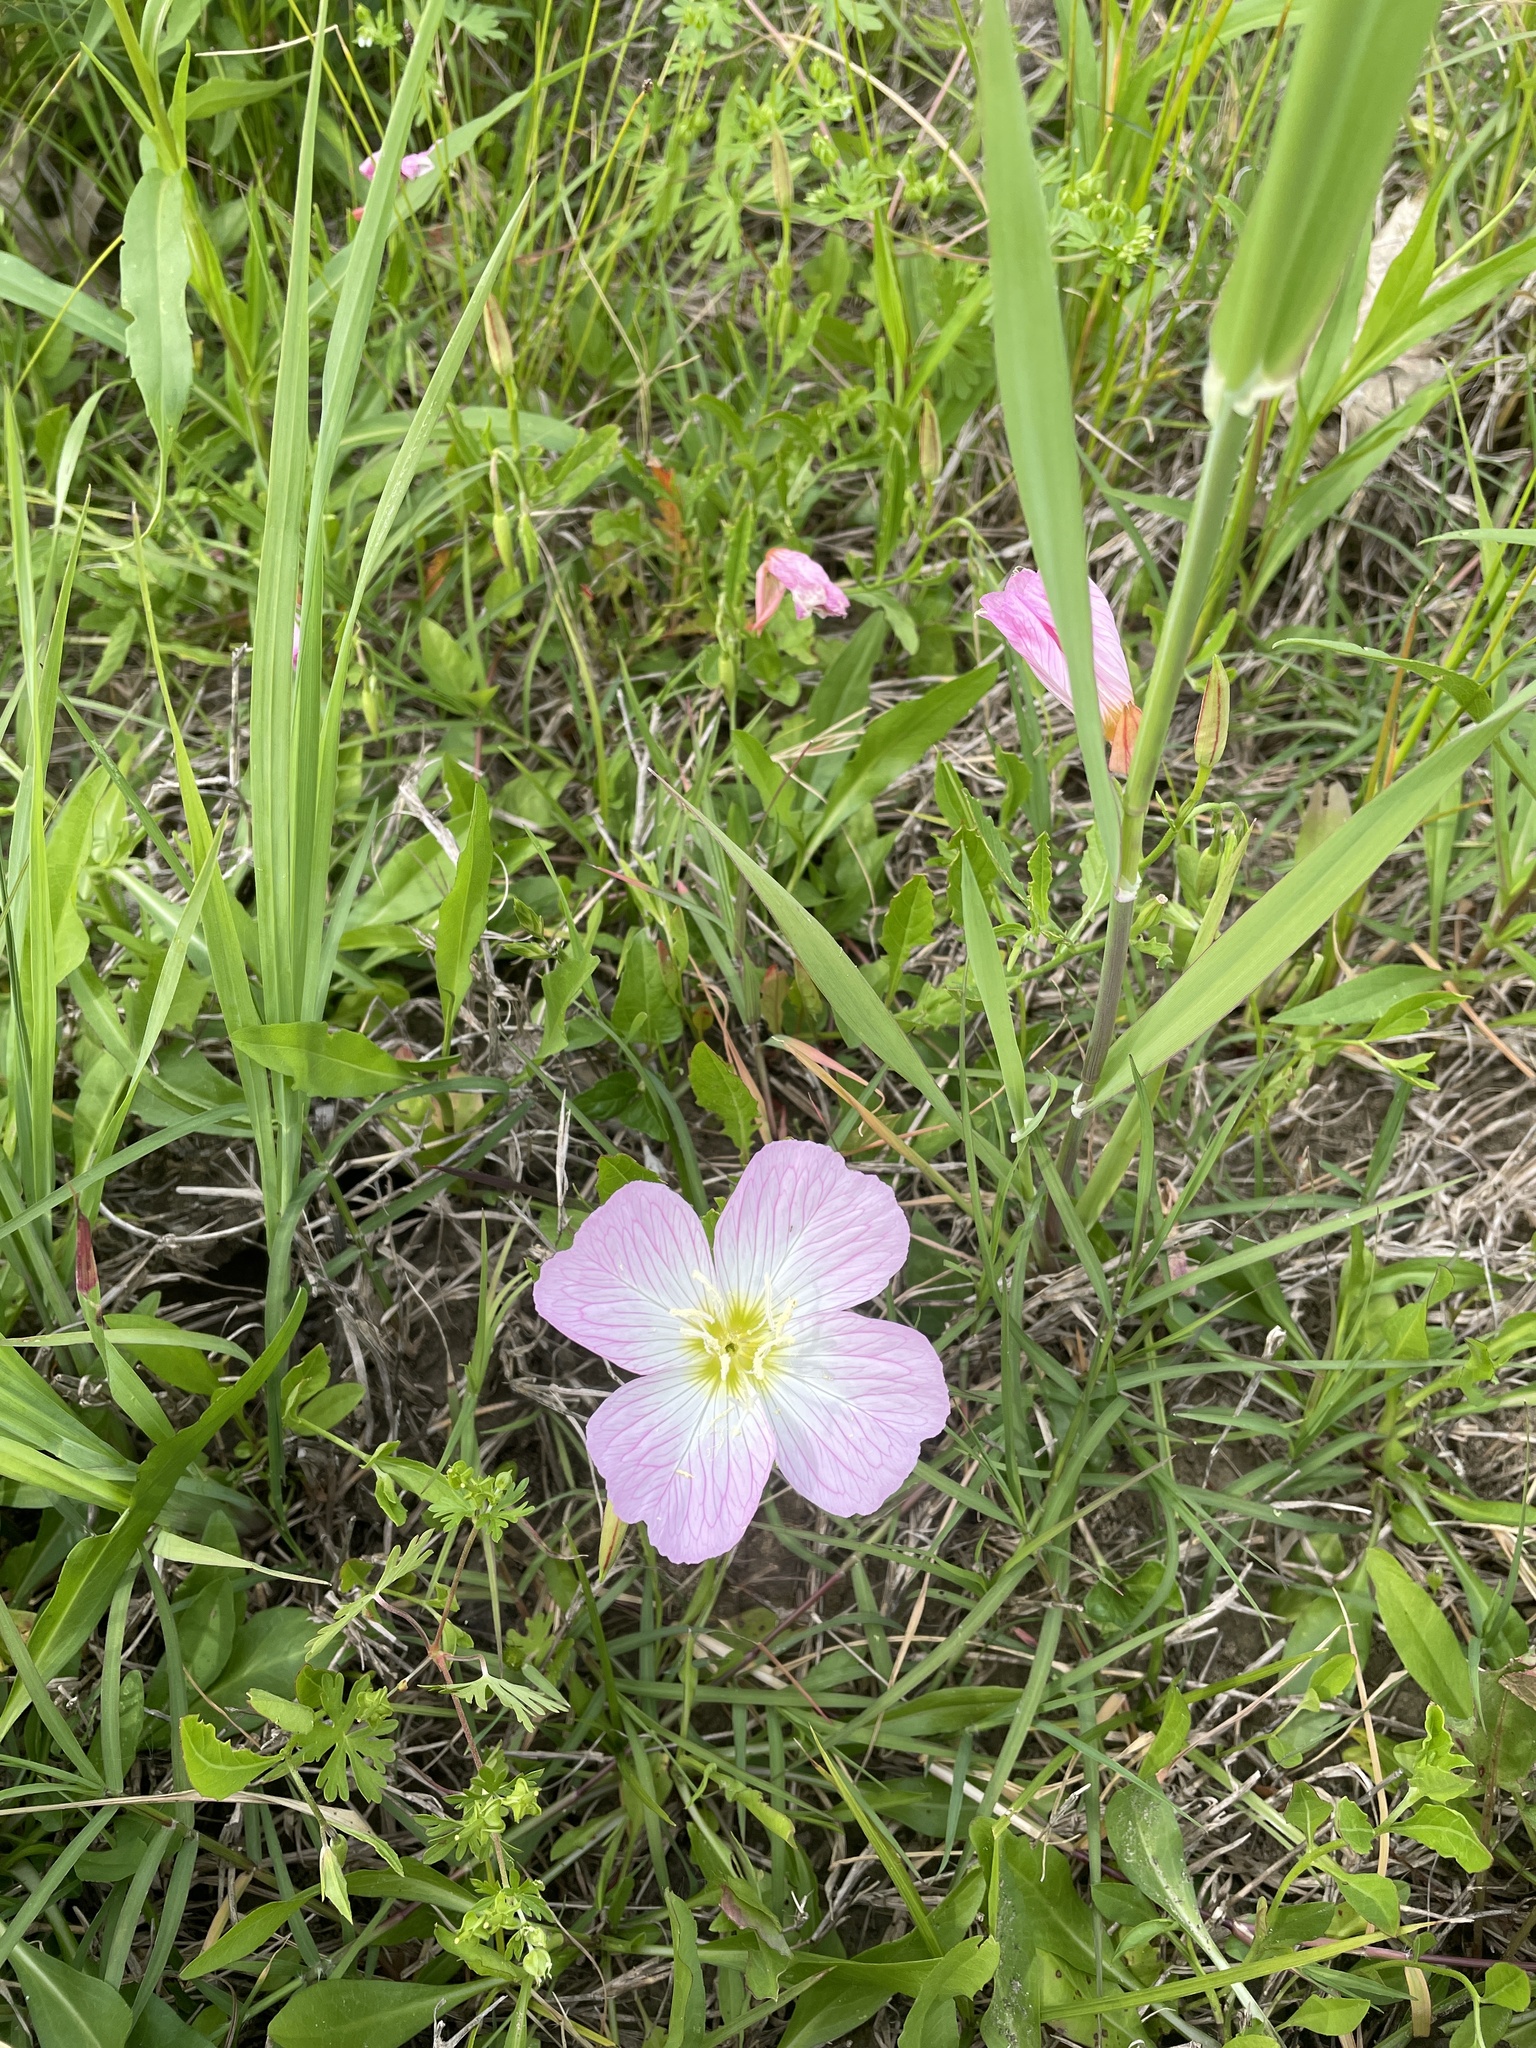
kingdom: Plantae
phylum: Tracheophyta
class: Magnoliopsida
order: Myrtales
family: Onagraceae
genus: Oenothera
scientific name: Oenothera speciosa
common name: White evening-primrose
